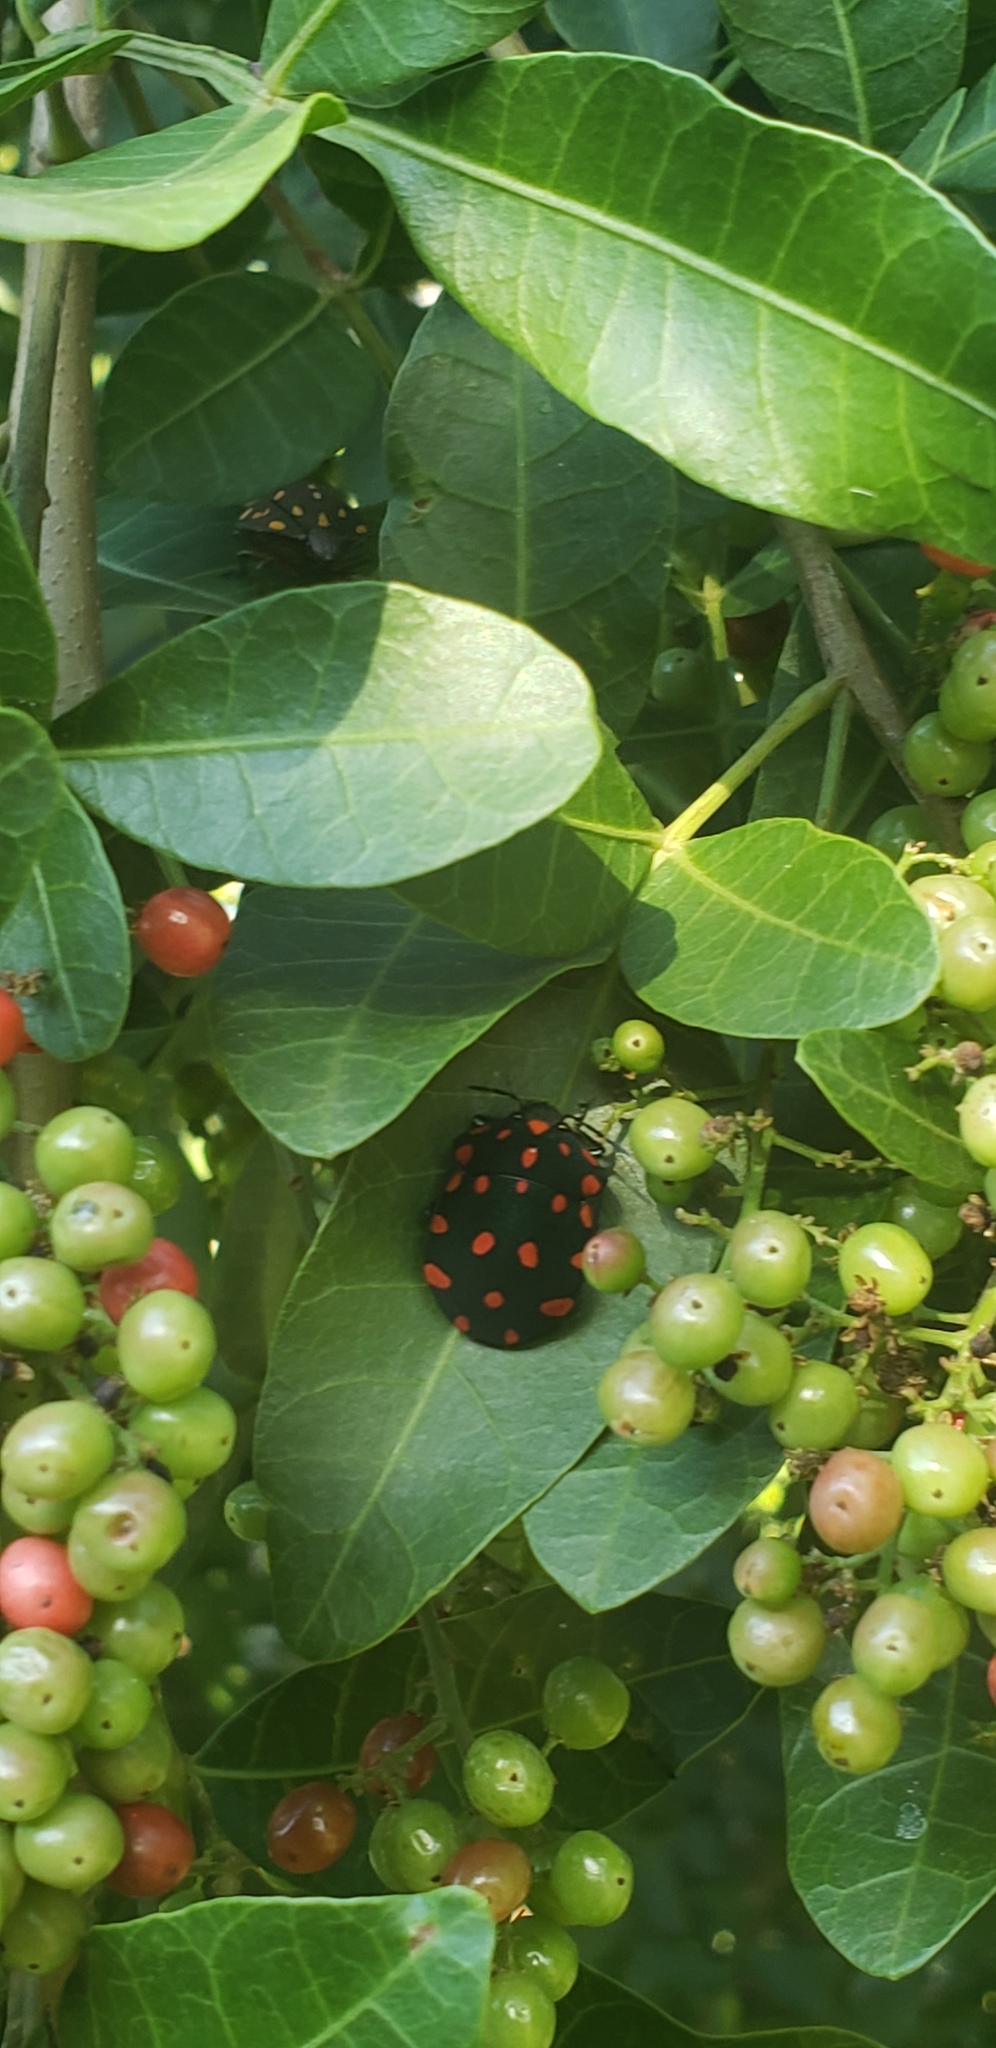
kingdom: Animalia
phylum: Arthropoda
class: Insecta
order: Hemiptera
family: Scutelleridae
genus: Pachycoris
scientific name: Pachycoris torridus
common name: Torrid jewel bug
